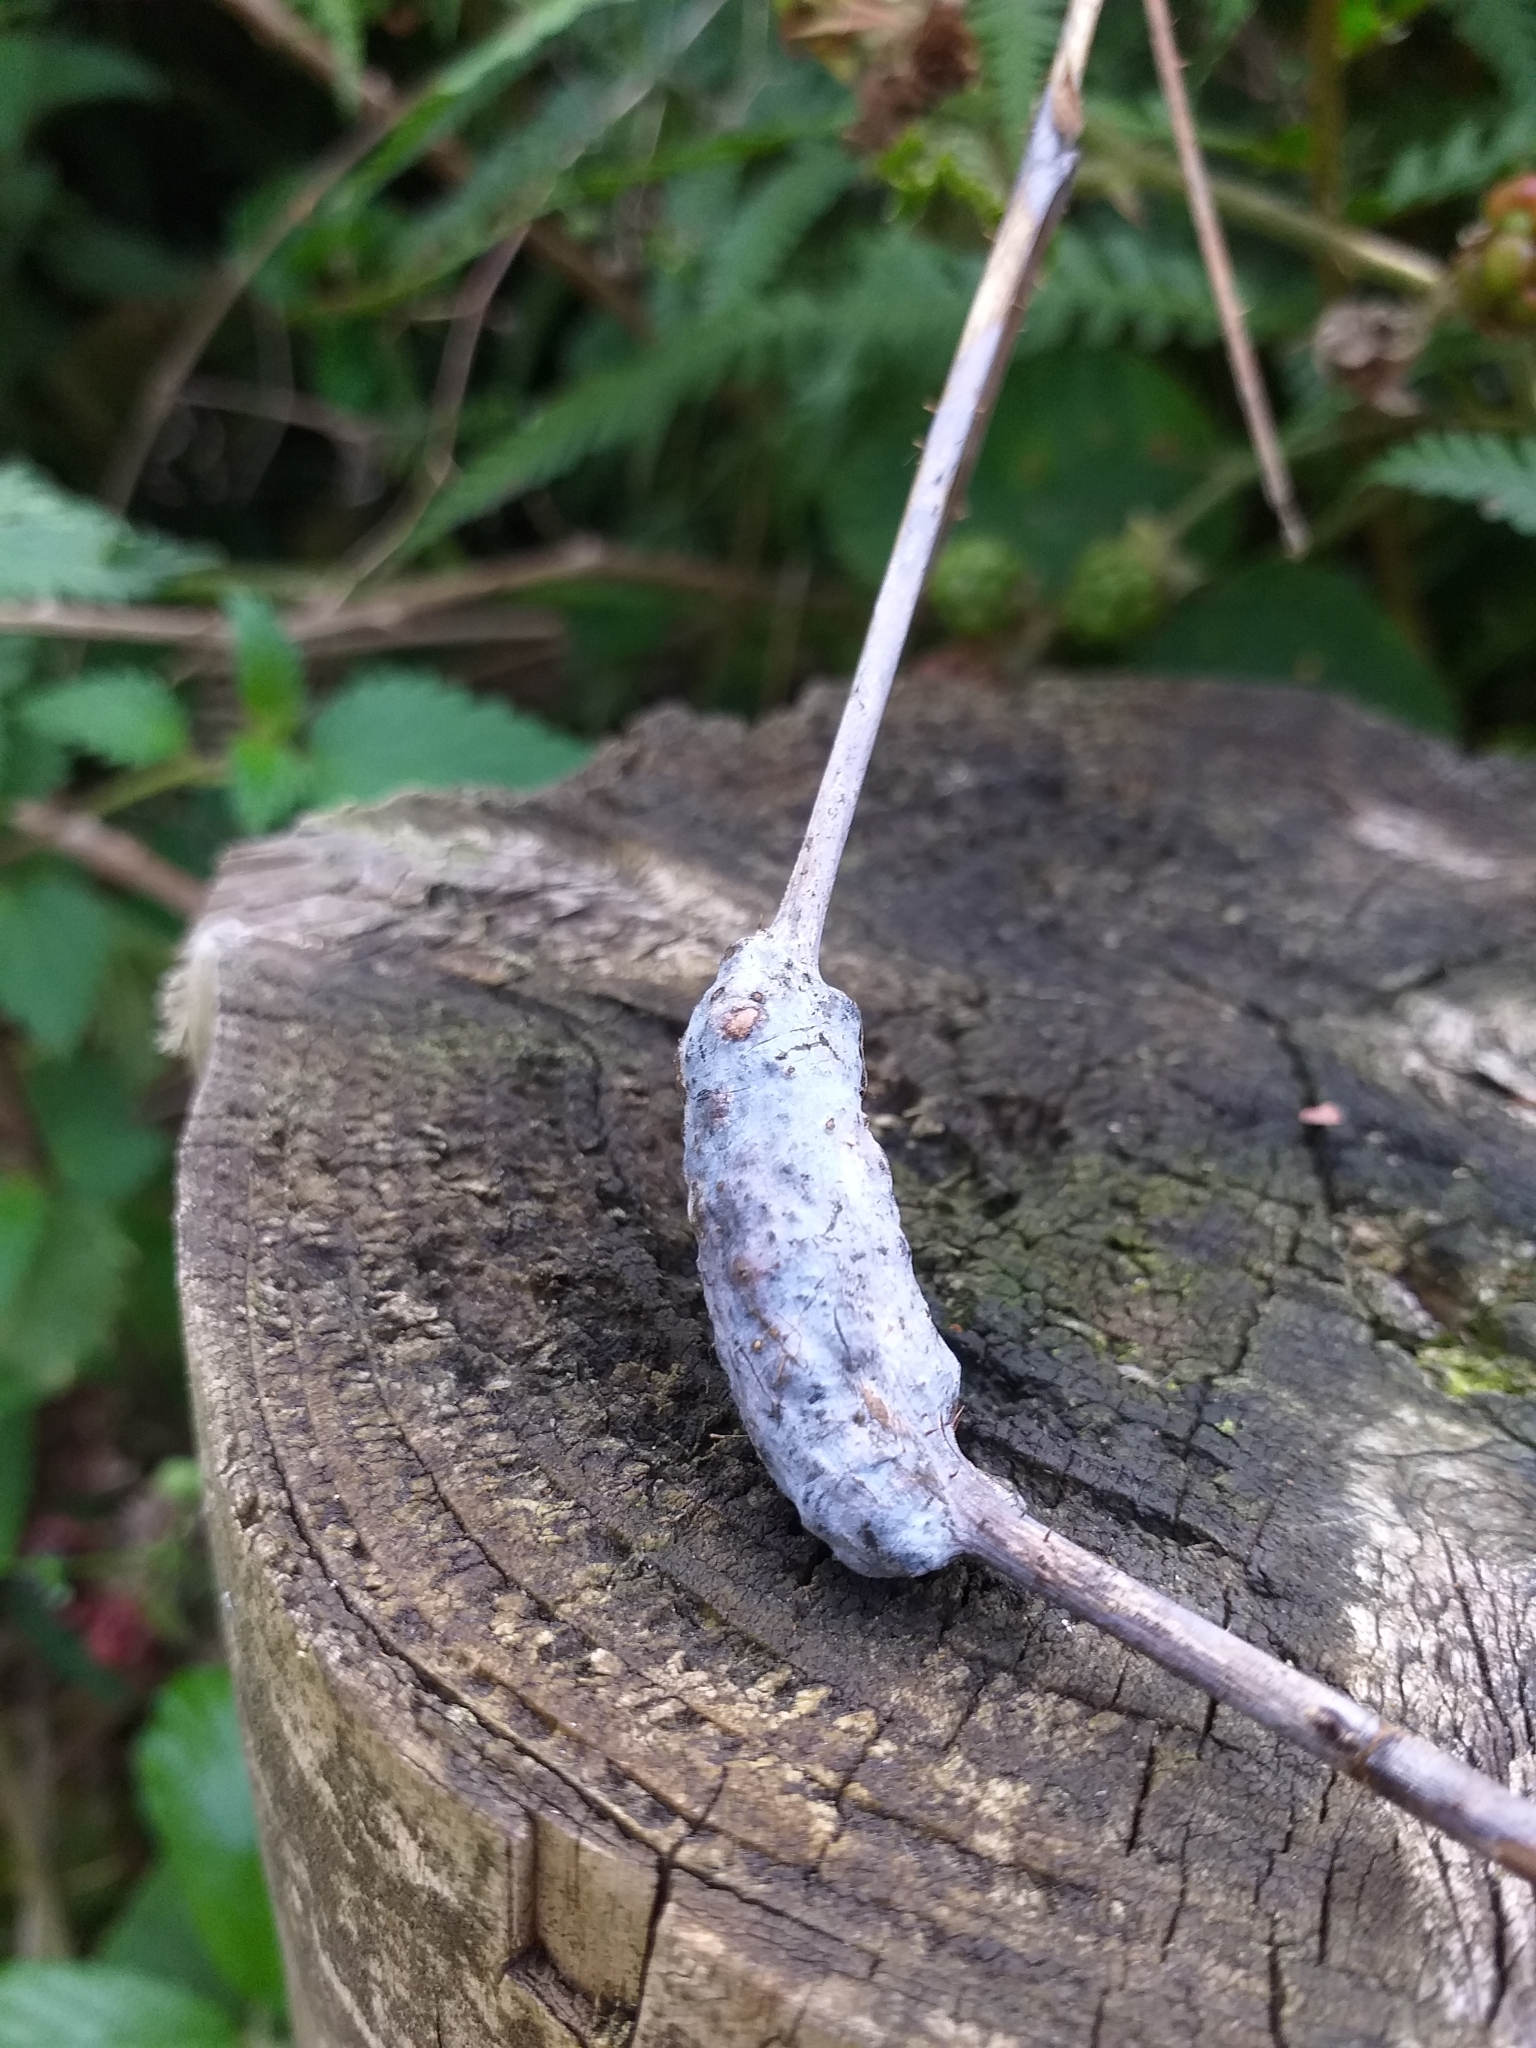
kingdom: Animalia
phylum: Arthropoda
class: Insecta
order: Hymenoptera
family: Cynipidae
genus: Diastrophus
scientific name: Diastrophus rubi
